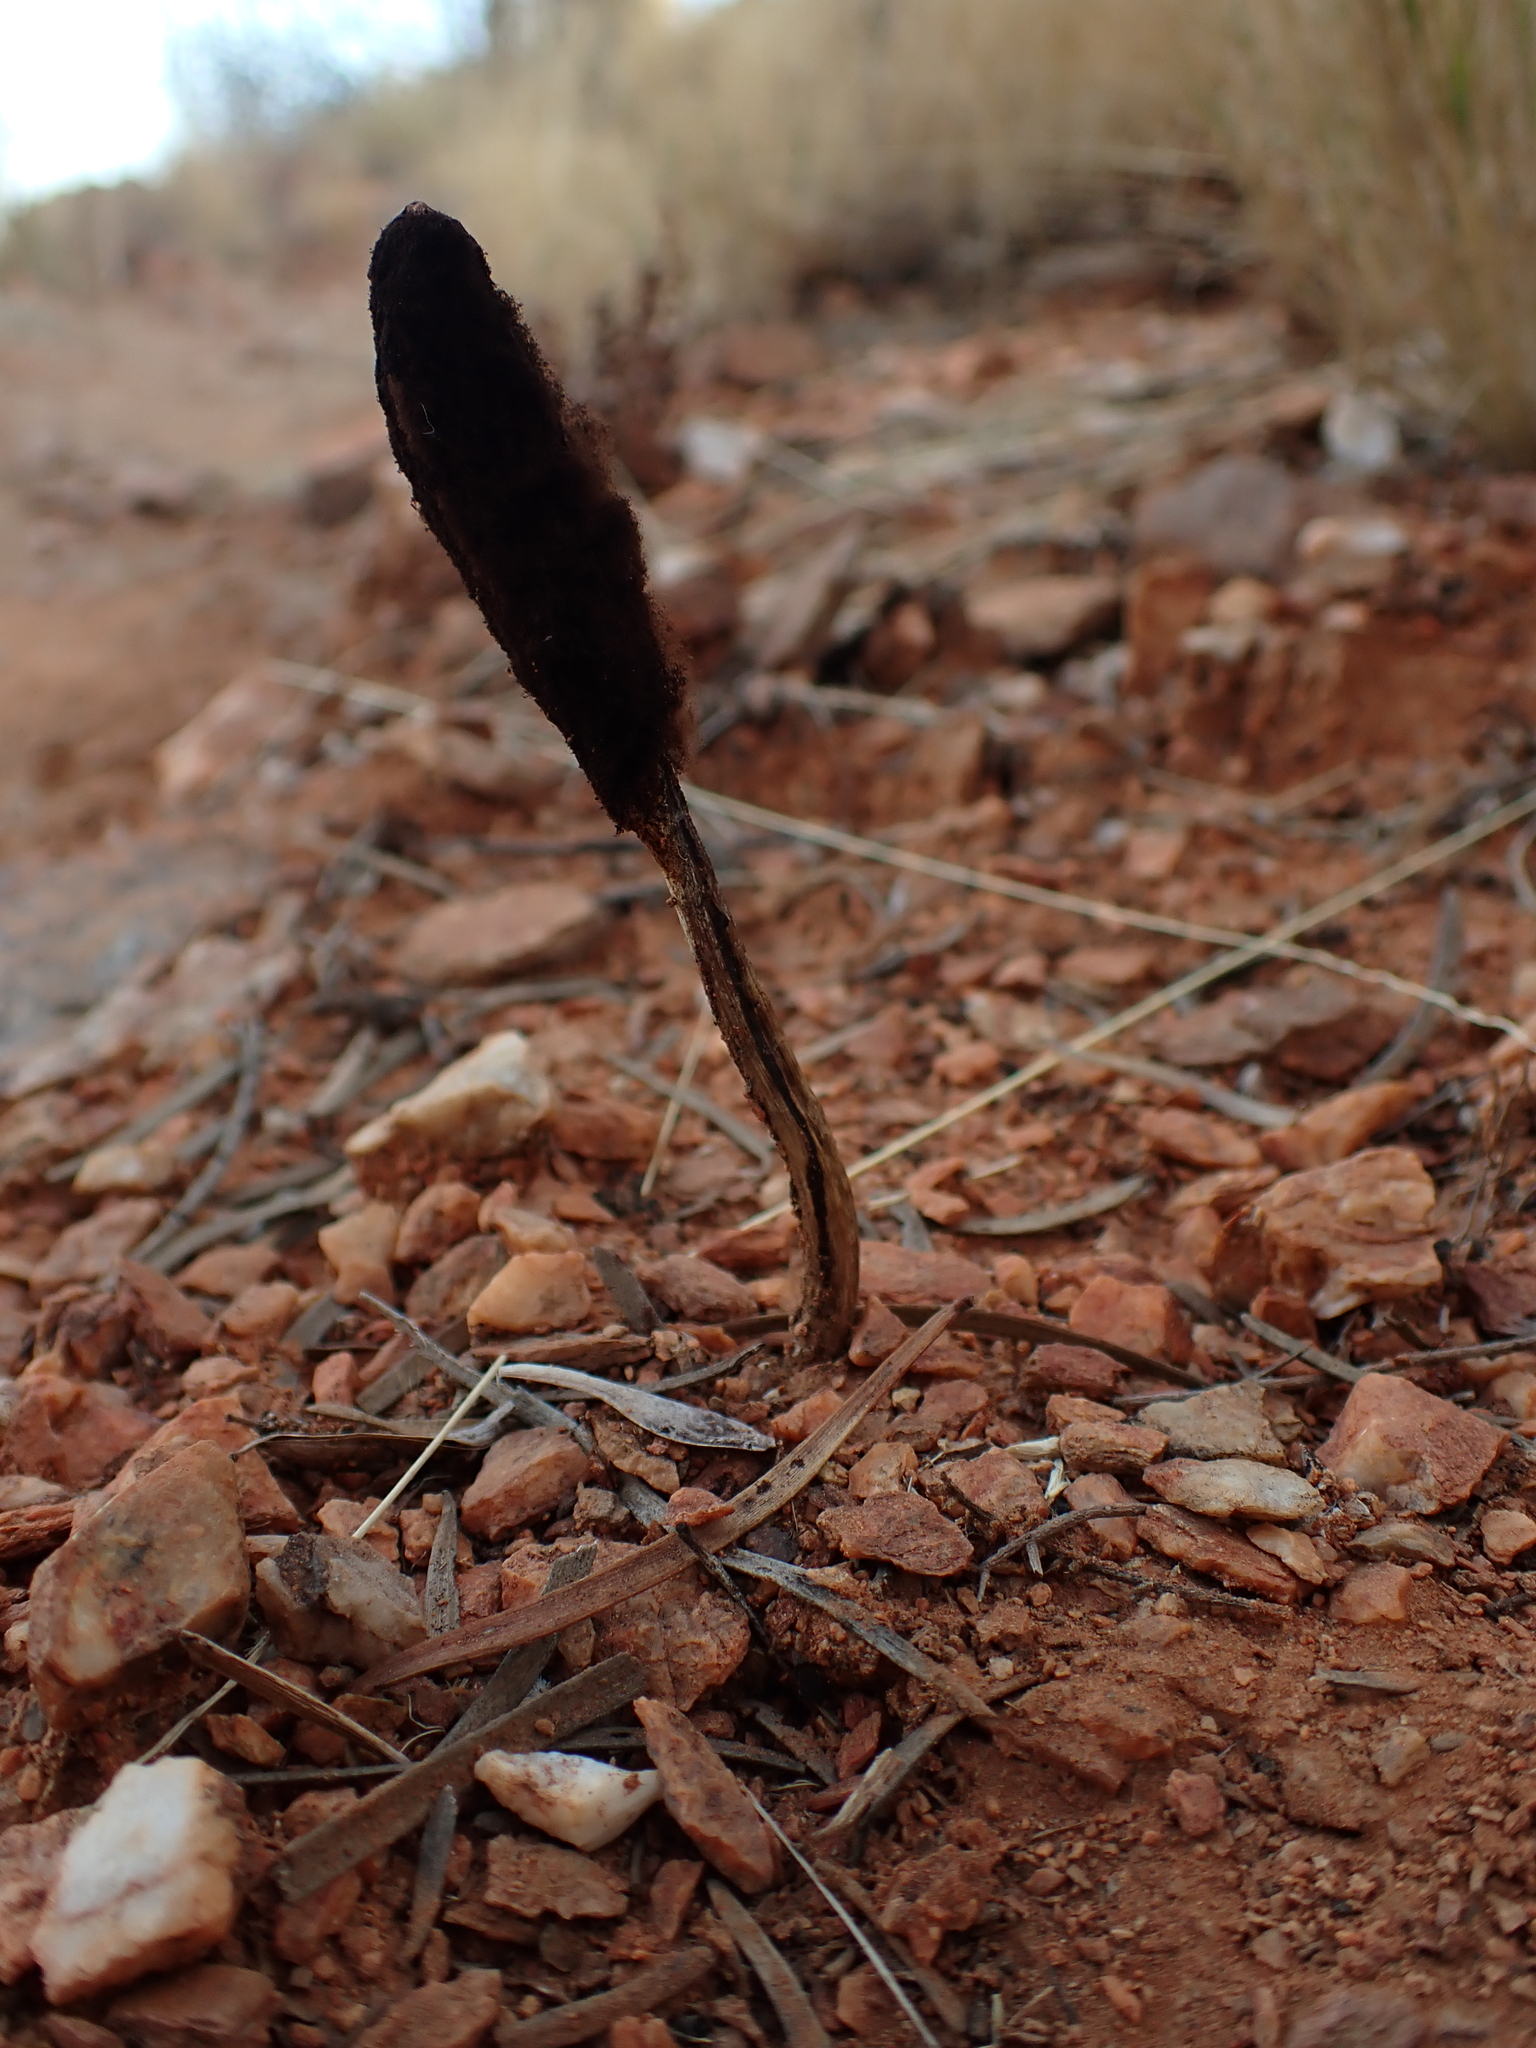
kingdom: Fungi
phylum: Basidiomycota
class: Agaricomycetes
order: Agaricales
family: Agaricaceae
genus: Podaxis
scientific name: Podaxis pistillaris
